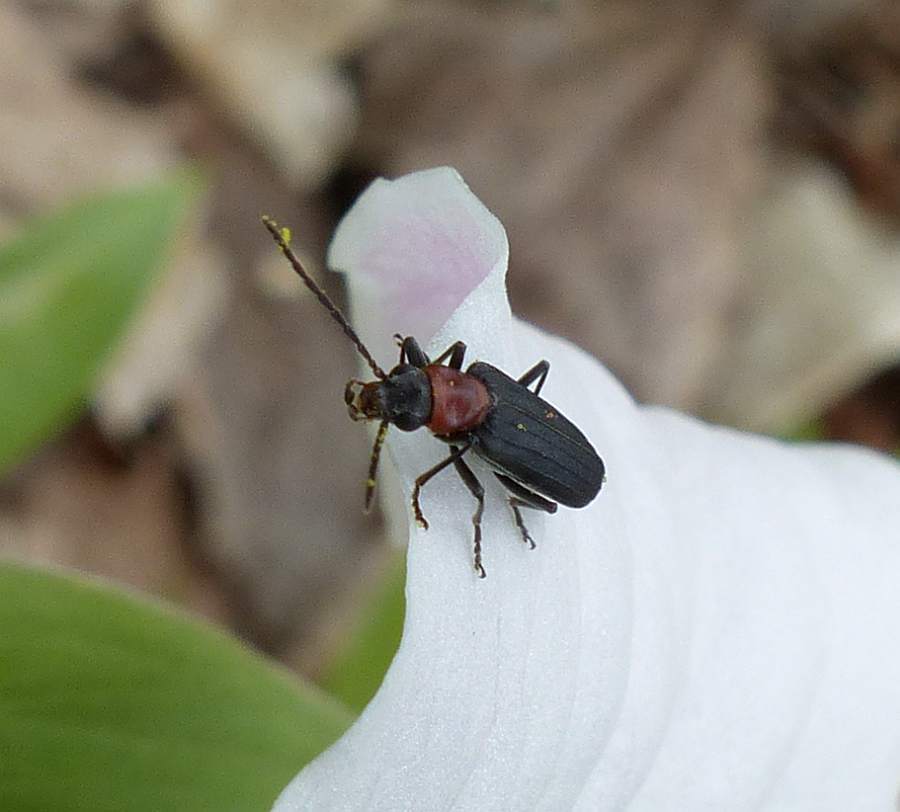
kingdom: Animalia
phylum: Arthropoda
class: Insecta
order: Coleoptera
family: Oedemeridae
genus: Ischnomera
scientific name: Ischnomera
